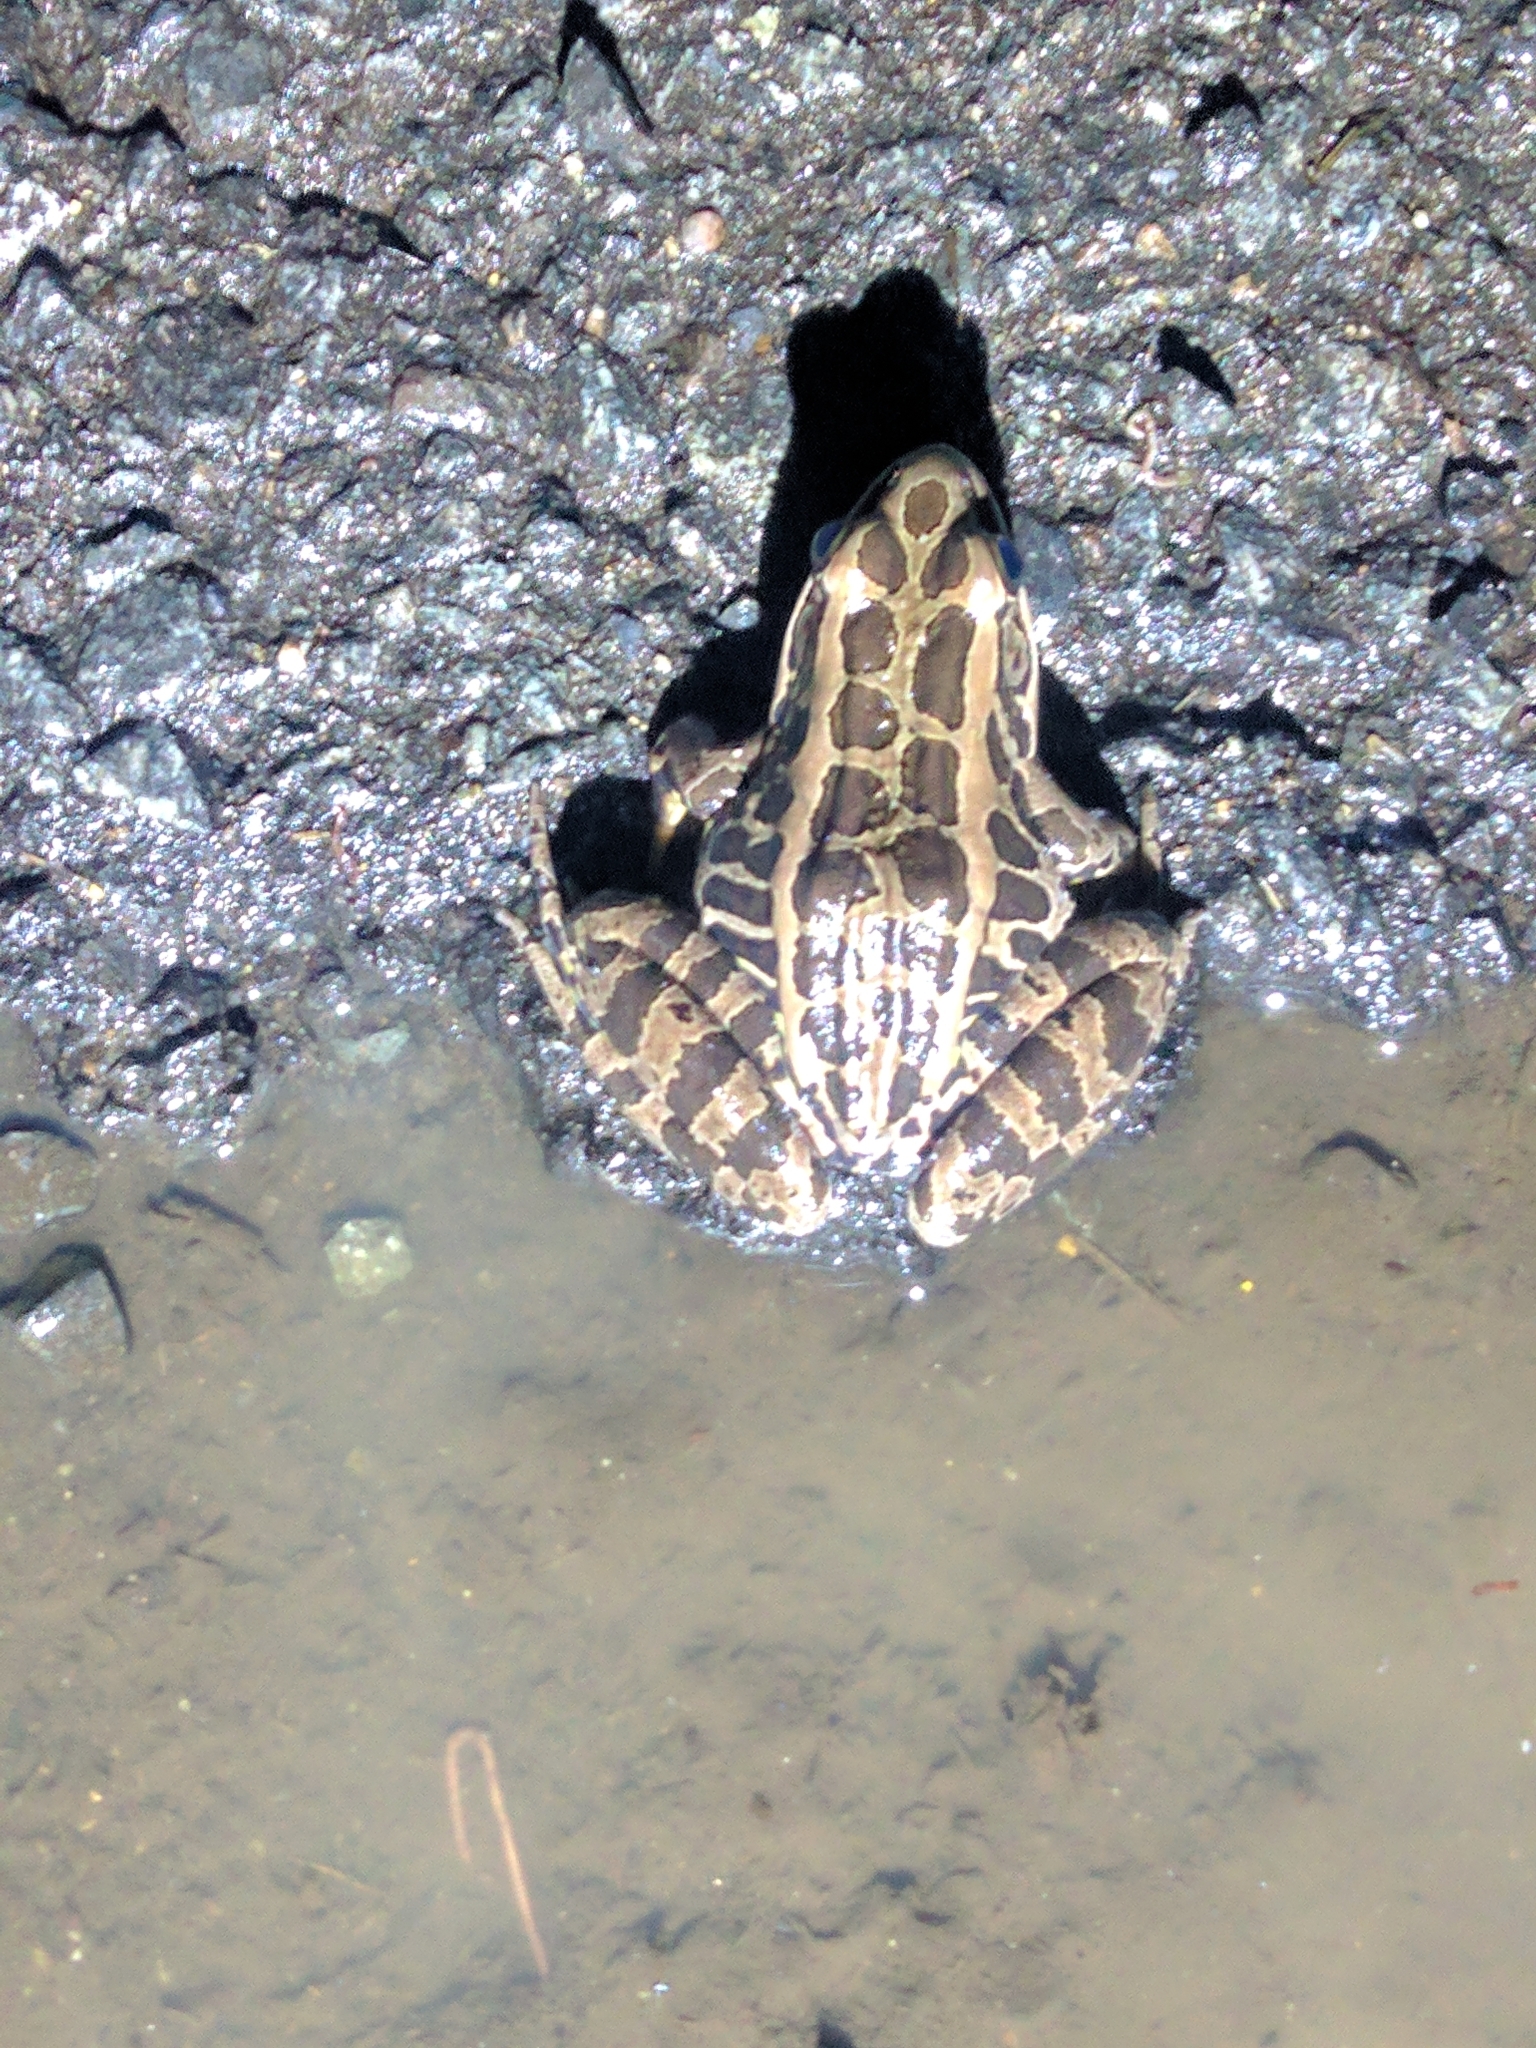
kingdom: Animalia
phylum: Chordata
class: Amphibia
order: Anura
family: Ranidae
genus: Lithobates
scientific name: Lithobates palustris
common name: Pickerel frog
